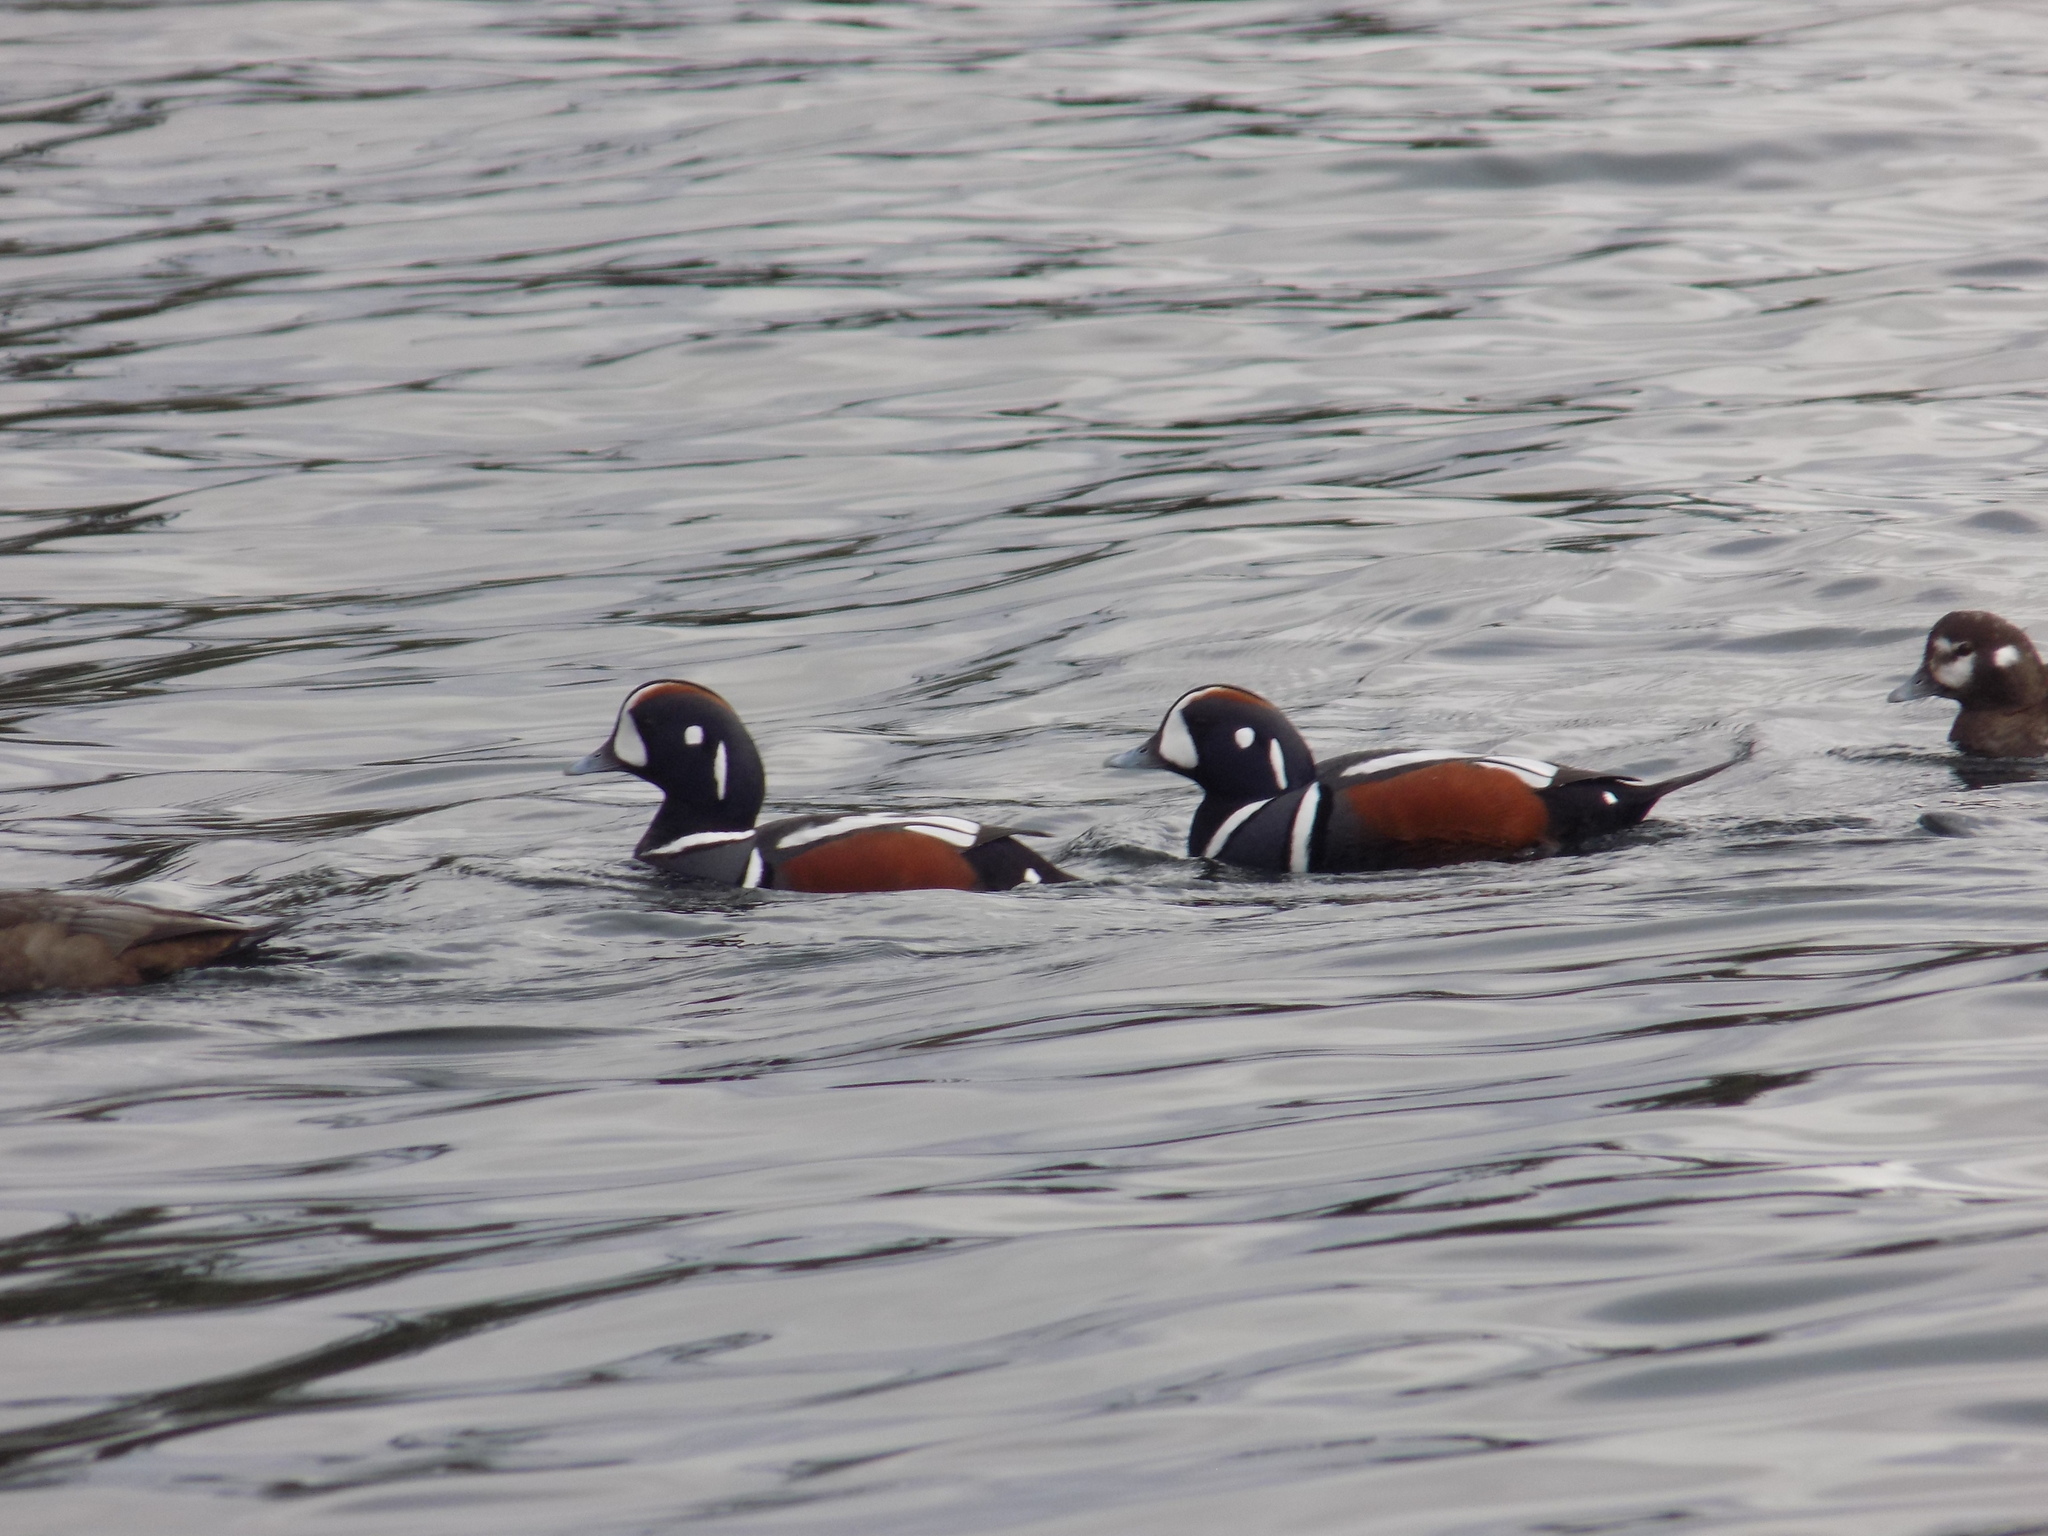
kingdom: Animalia
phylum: Chordata
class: Aves
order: Anseriformes
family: Anatidae
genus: Histrionicus
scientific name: Histrionicus histrionicus
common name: Harlequin duck
